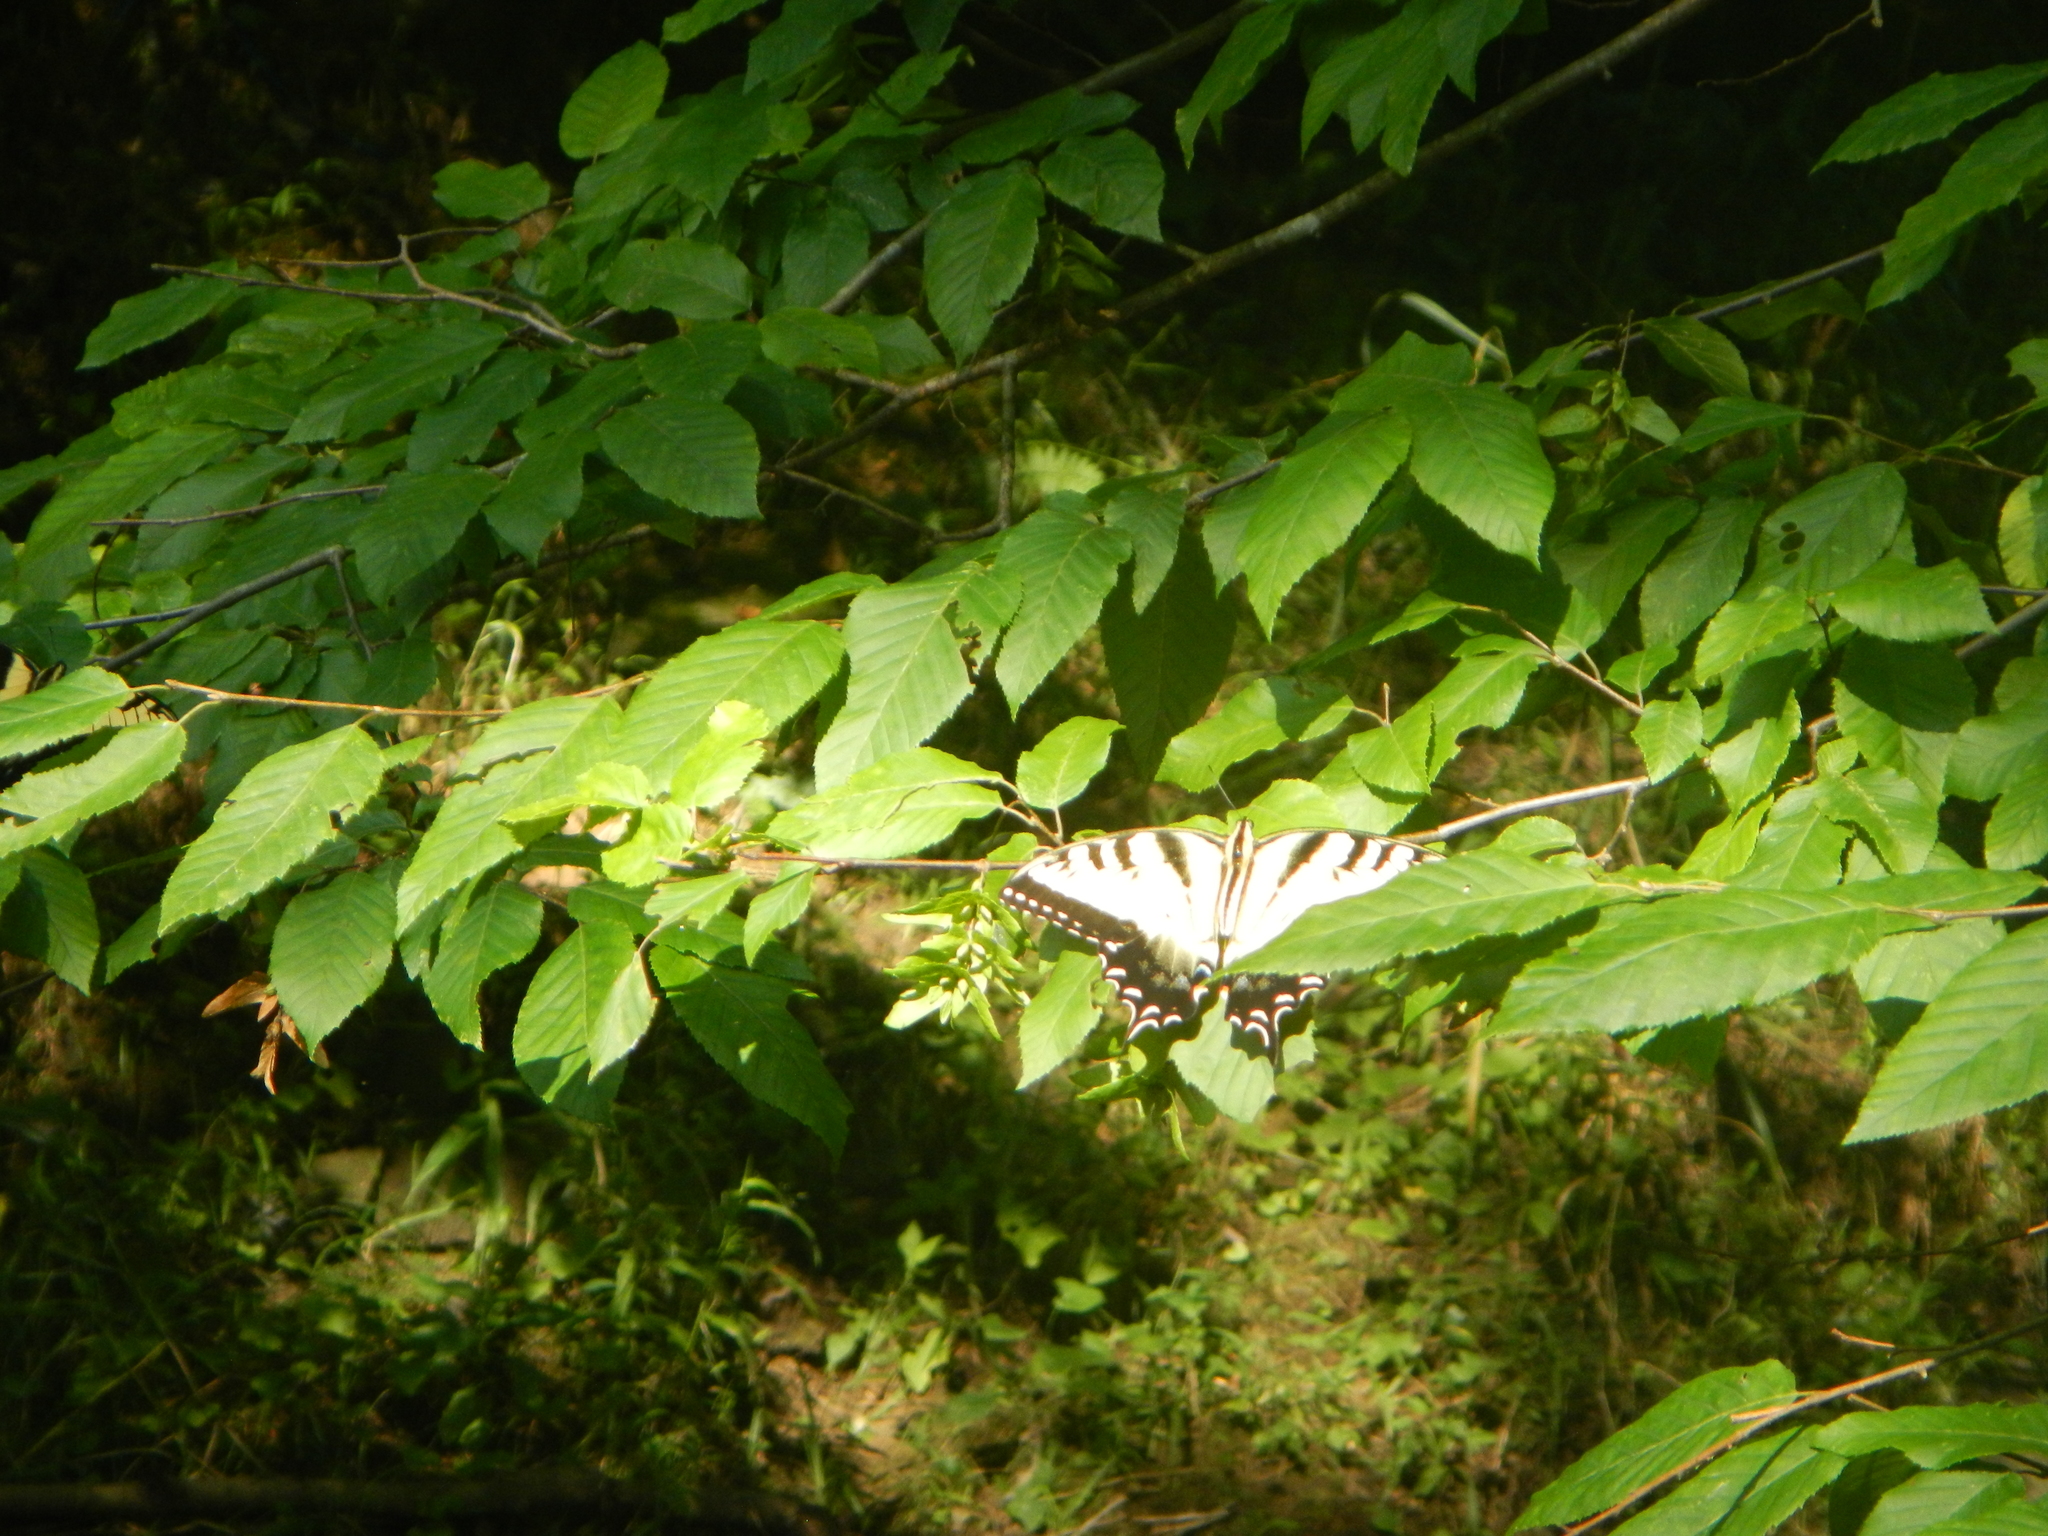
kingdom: Animalia
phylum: Arthropoda
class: Insecta
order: Lepidoptera
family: Papilionidae
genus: Papilio
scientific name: Papilio glaucus
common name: Tiger swallowtail
